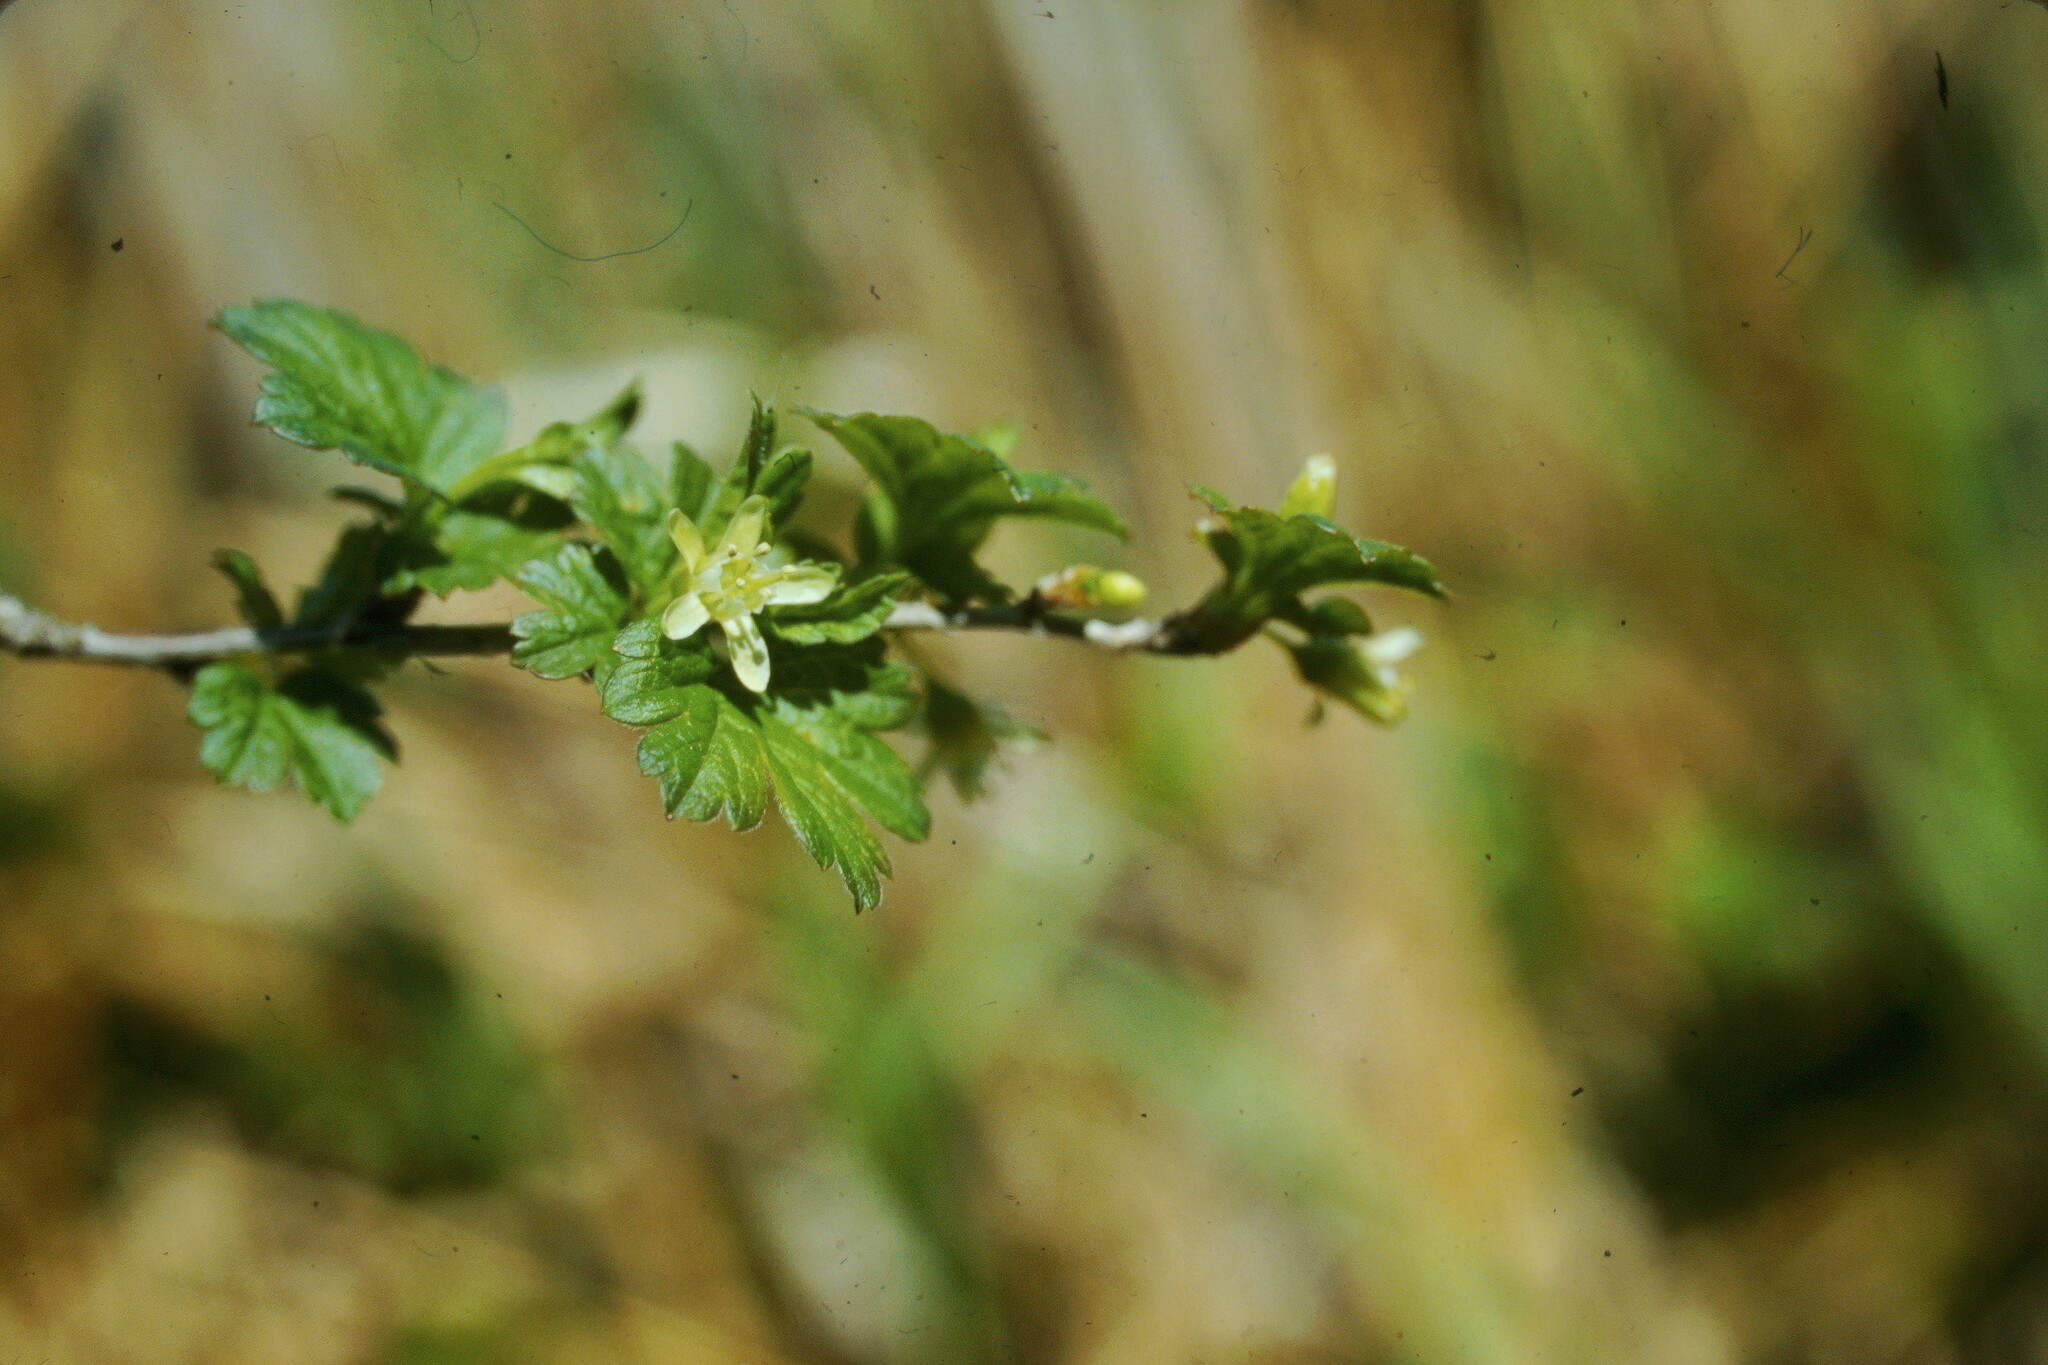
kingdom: Plantae
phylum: Tracheophyta
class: Magnoliopsida
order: Saxifragales
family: Grossulariaceae
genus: Ribes
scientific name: Ribes hirtellum
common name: Hairy gooseberry
